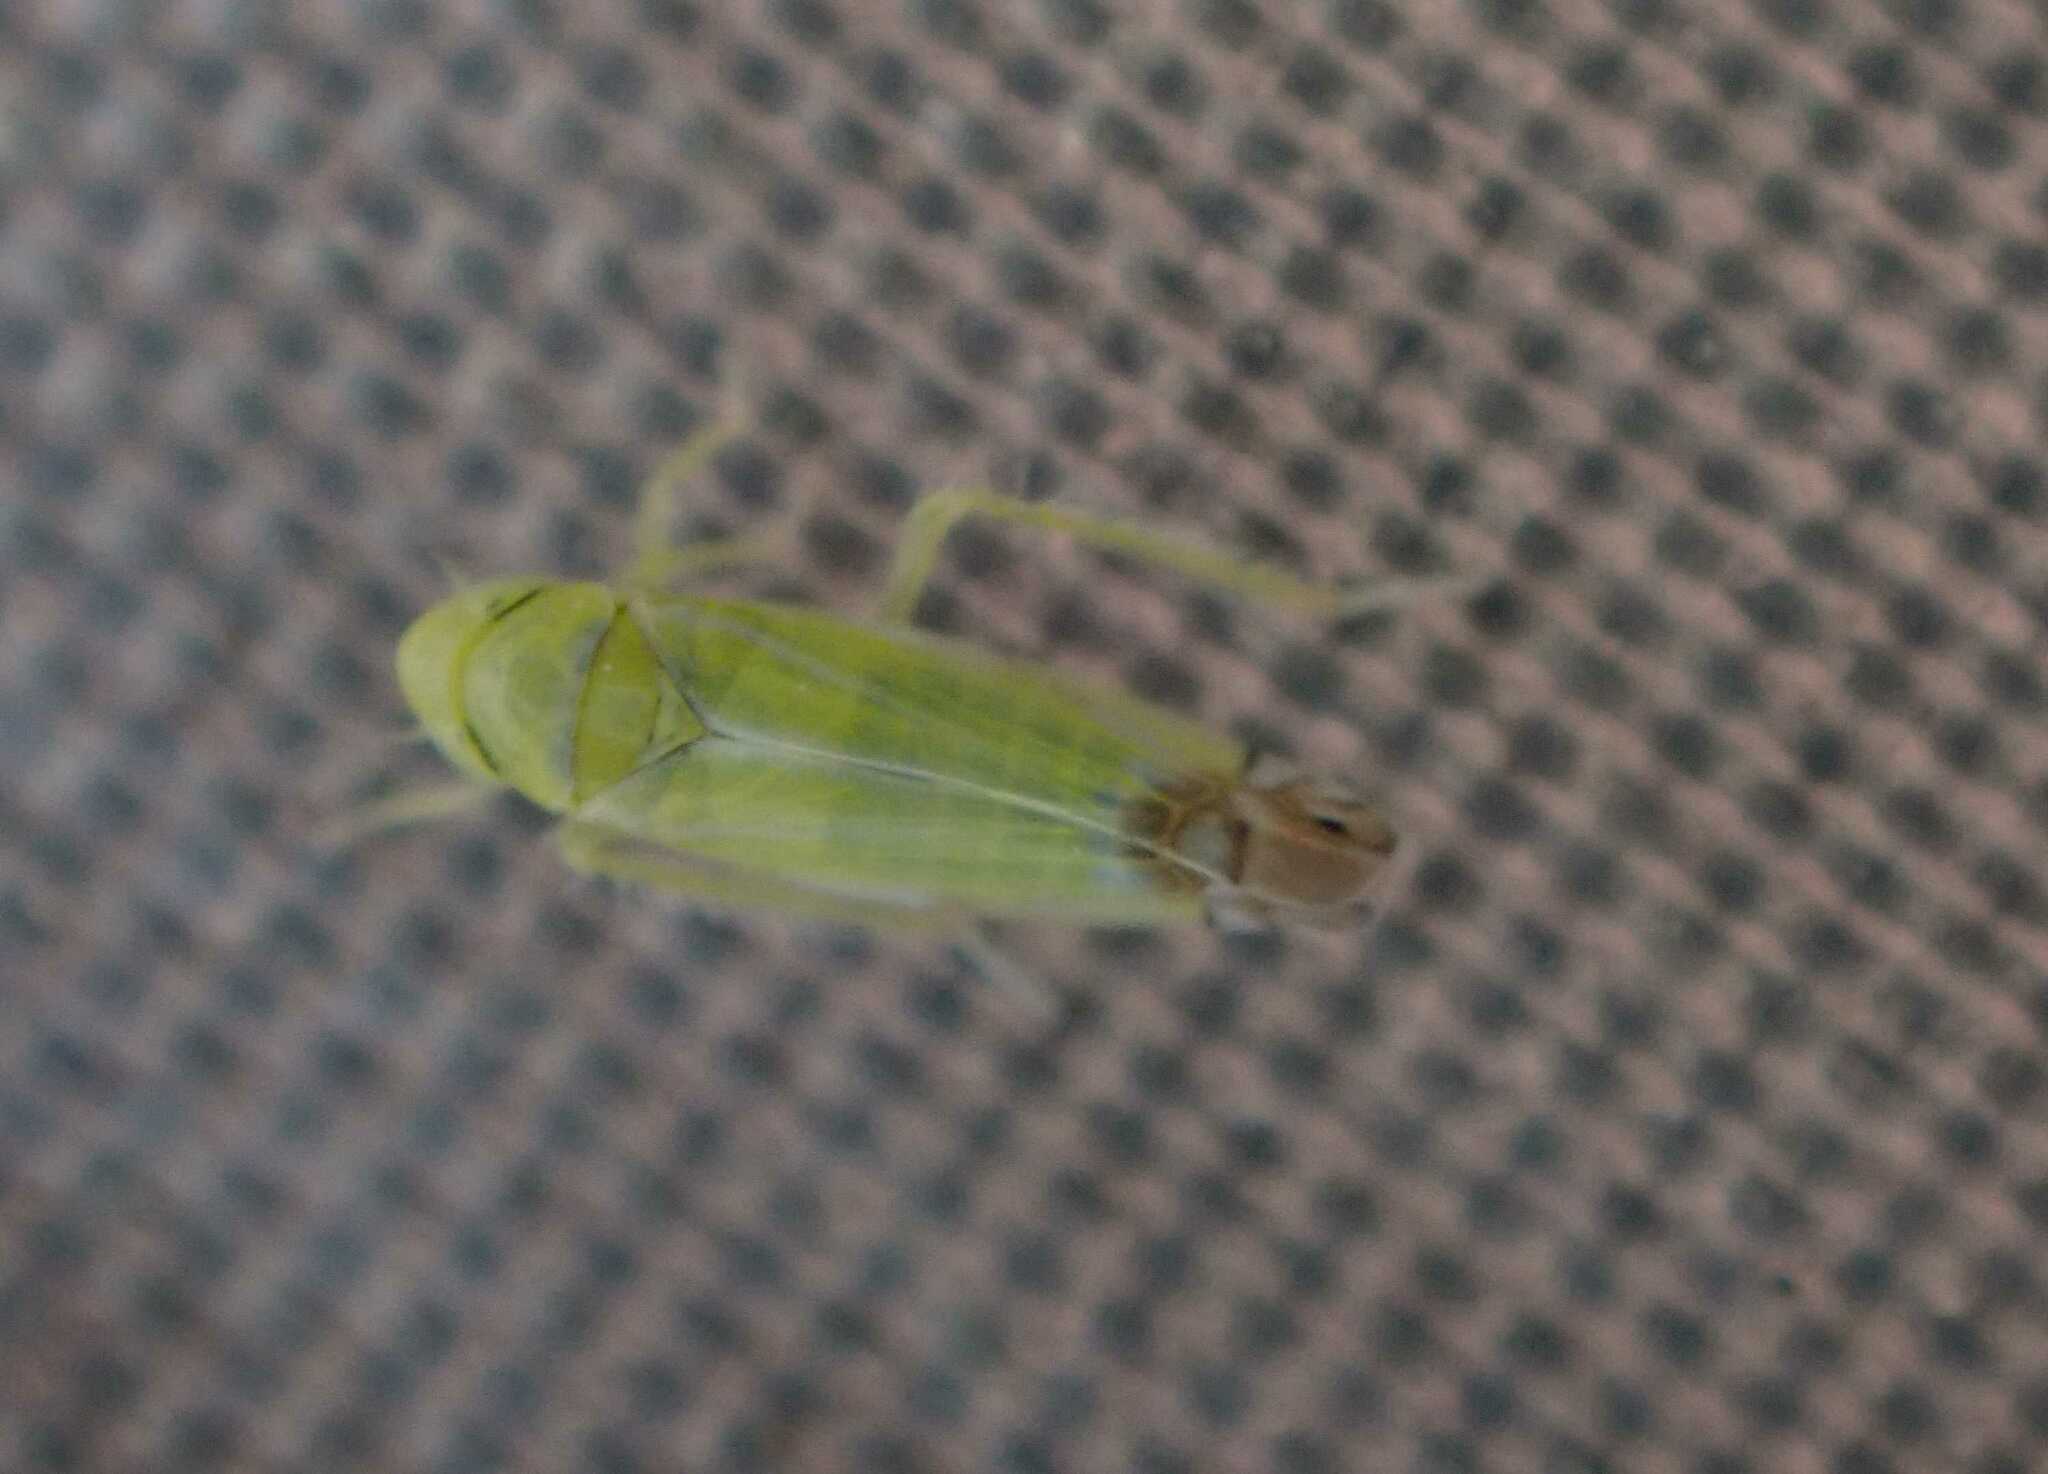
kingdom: Animalia
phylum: Arthropoda
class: Insecta
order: Hemiptera
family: Cicadellidae
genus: Zyginella
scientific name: Zyginella pulchra
